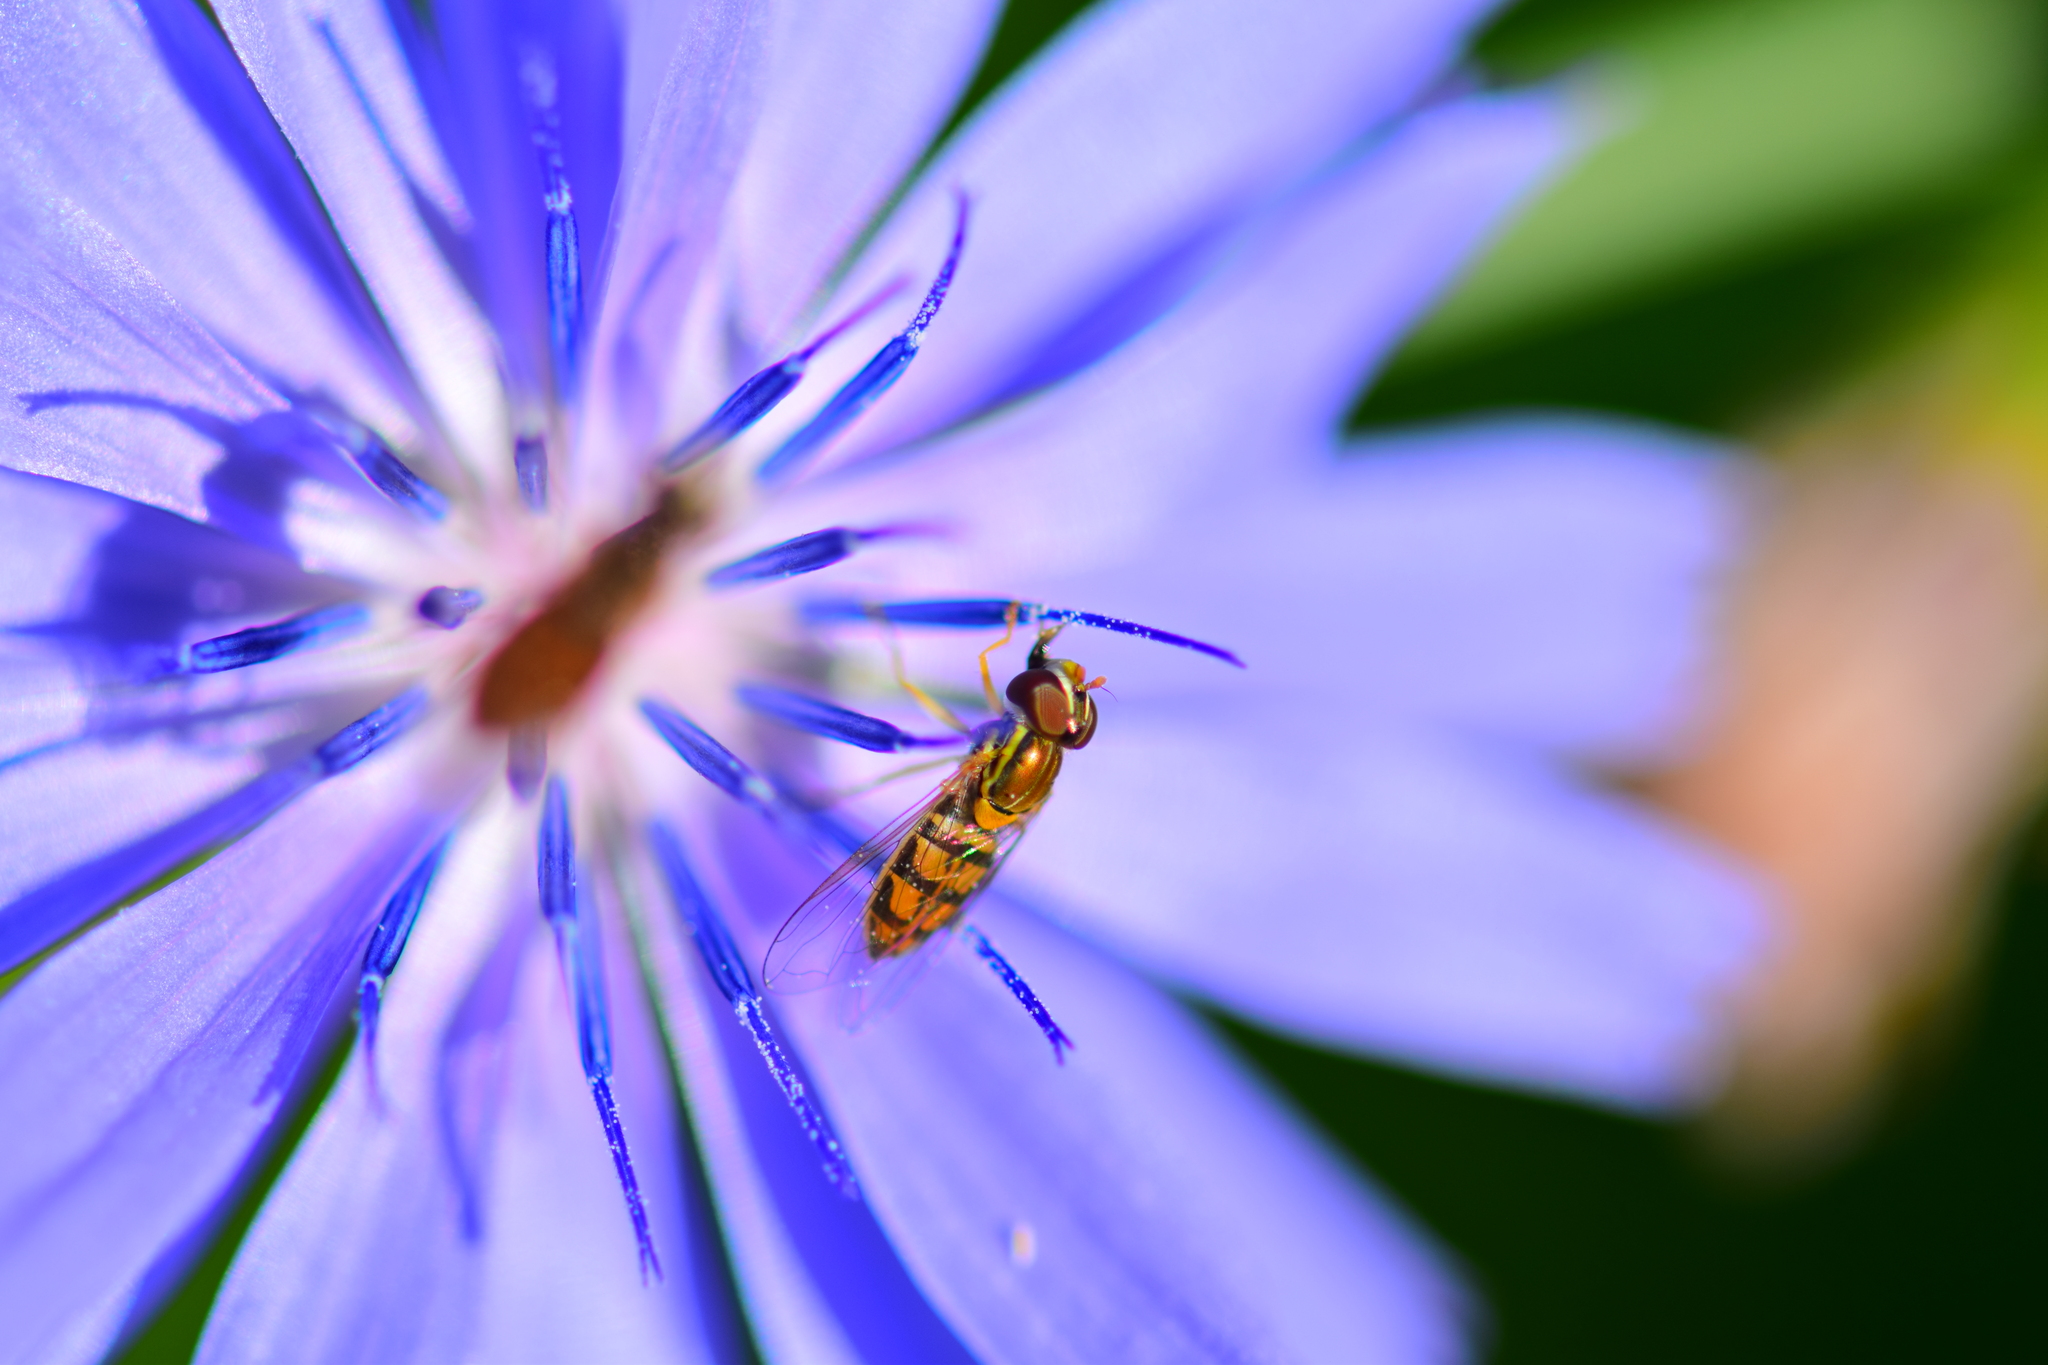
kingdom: Animalia
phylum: Arthropoda
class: Insecta
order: Diptera
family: Syrphidae
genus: Toxomerus
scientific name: Toxomerus marginatus
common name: Syrphid fly
